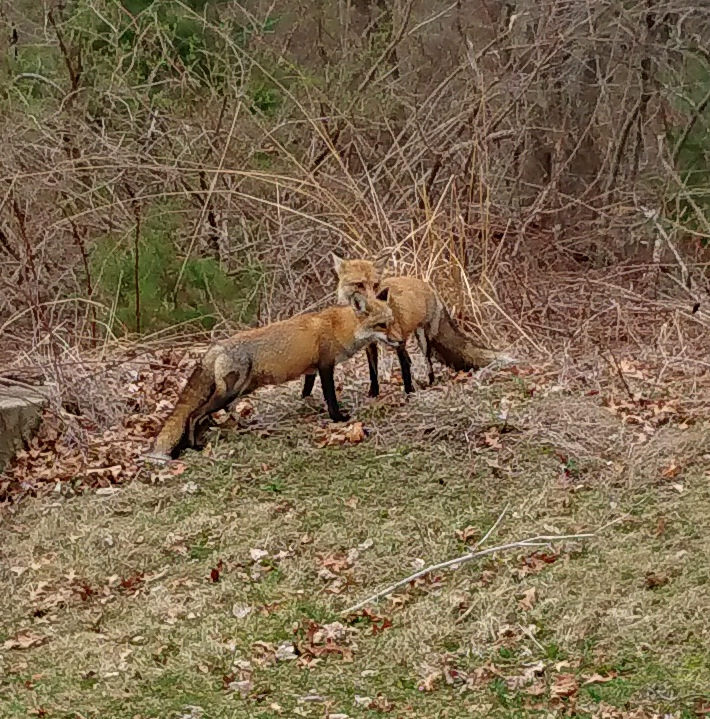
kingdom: Animalia
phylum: Chordata
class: Mammalia
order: Carnivora
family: Canidae
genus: Vulpes
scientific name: Vulpes vulpes
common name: Red fox
